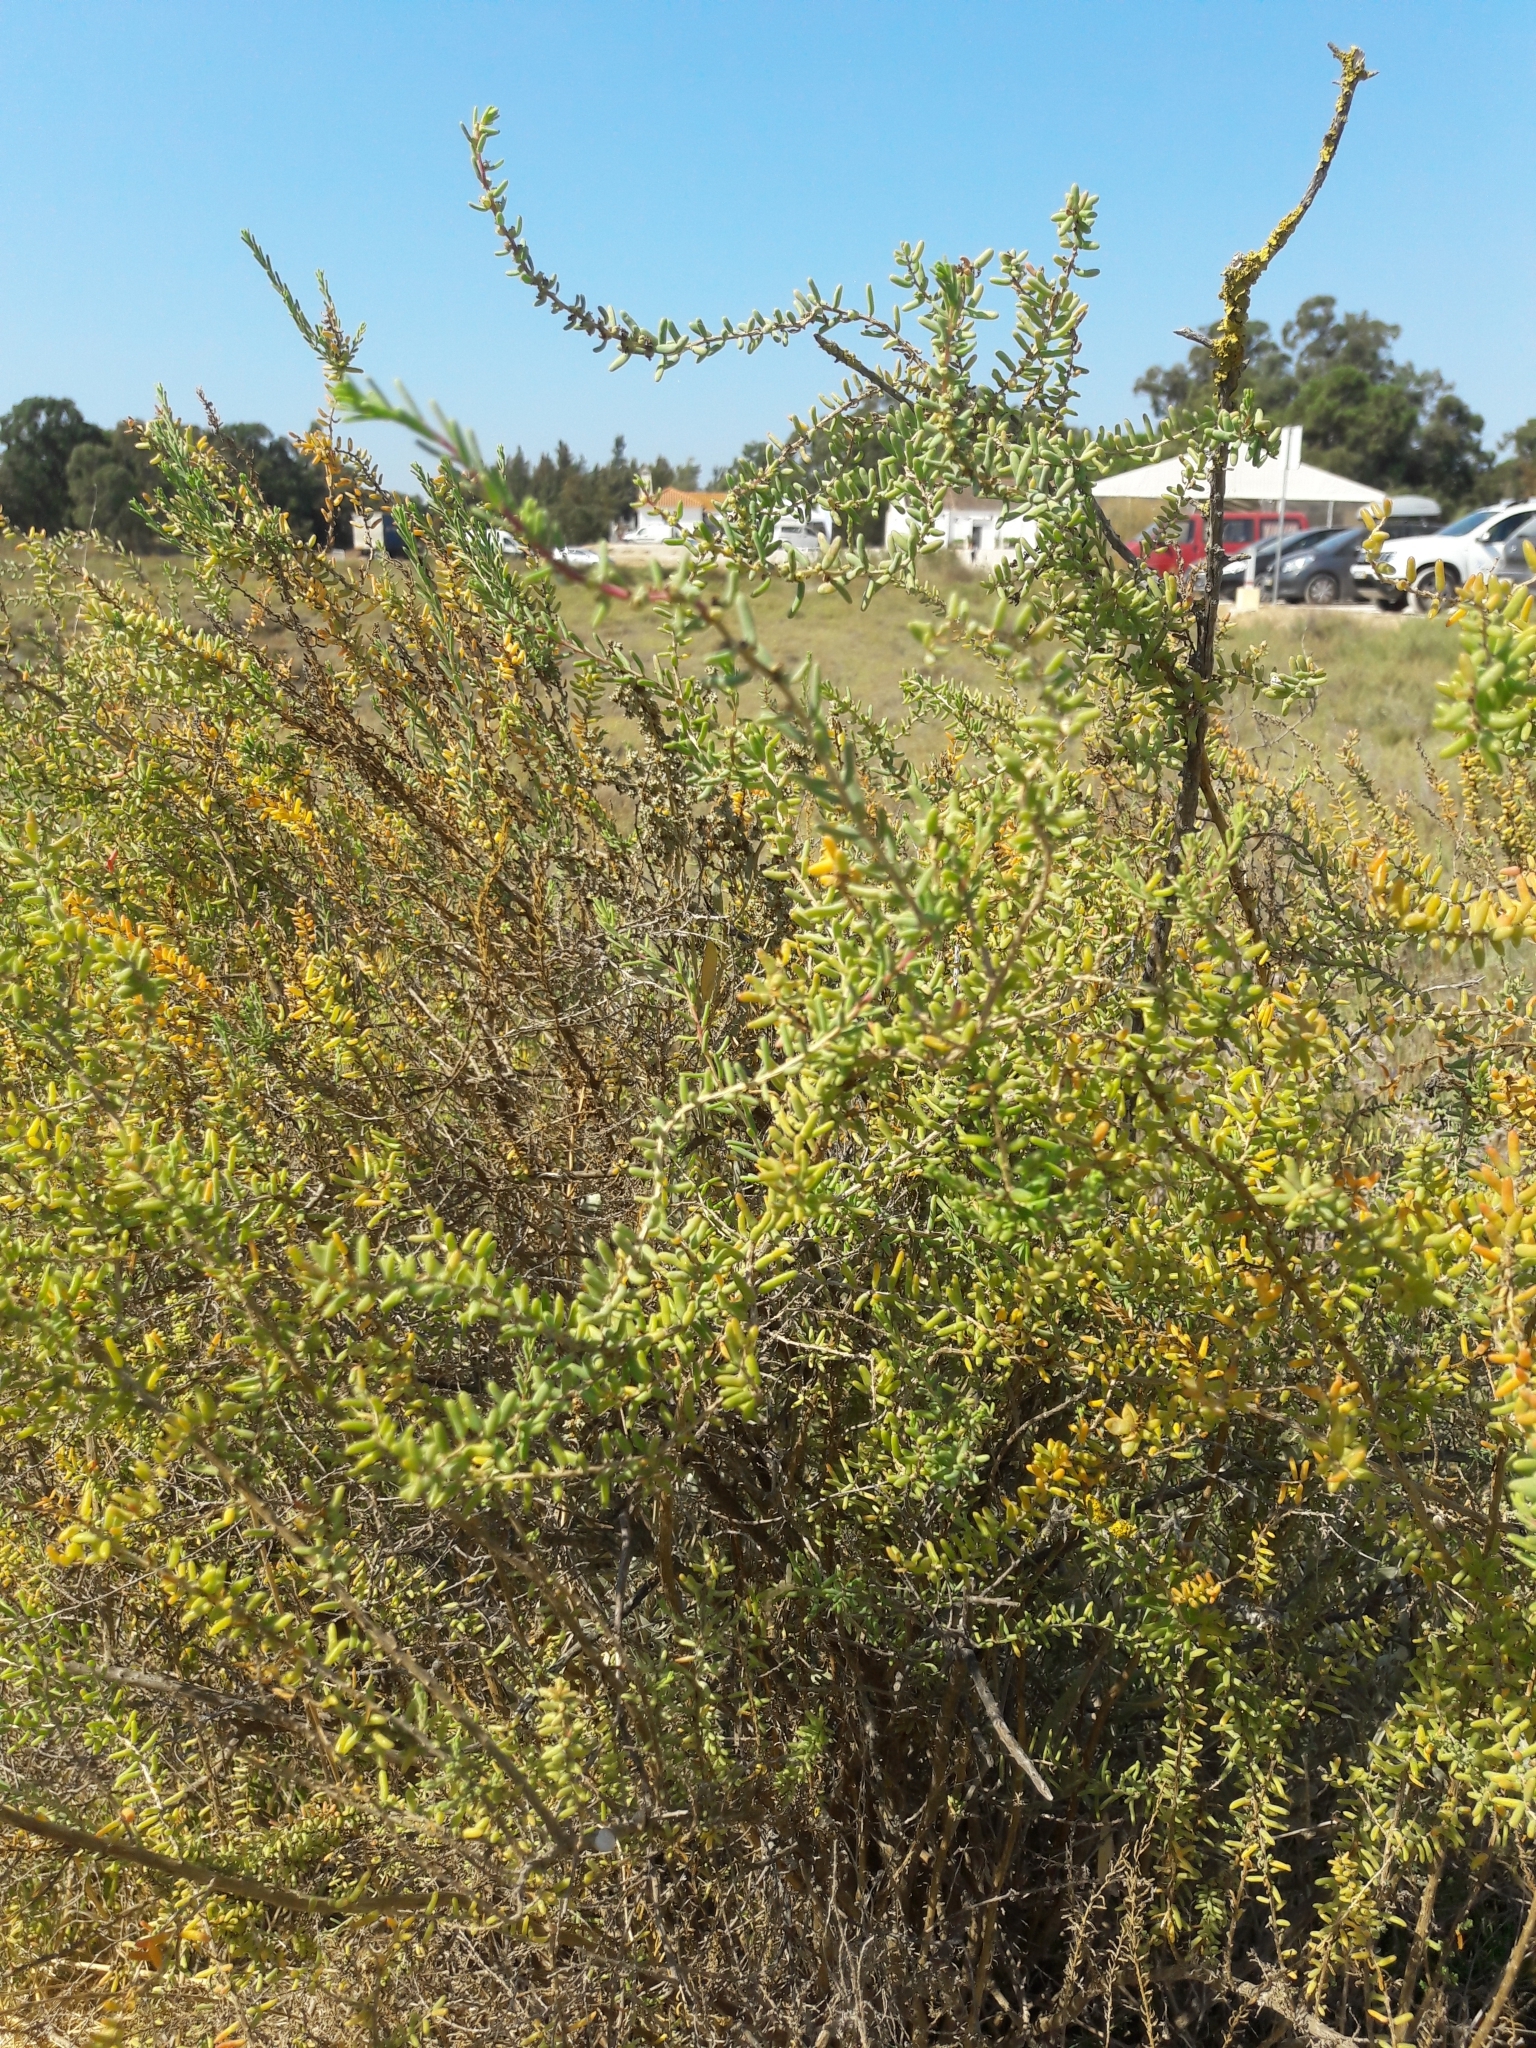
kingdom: Plantae
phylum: Tracheophyta
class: Magnoliopsida
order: Caryophyllales
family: Amaranthaceae
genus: Suaeda
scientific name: Suaeda vera
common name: Shrubby sea-blite
